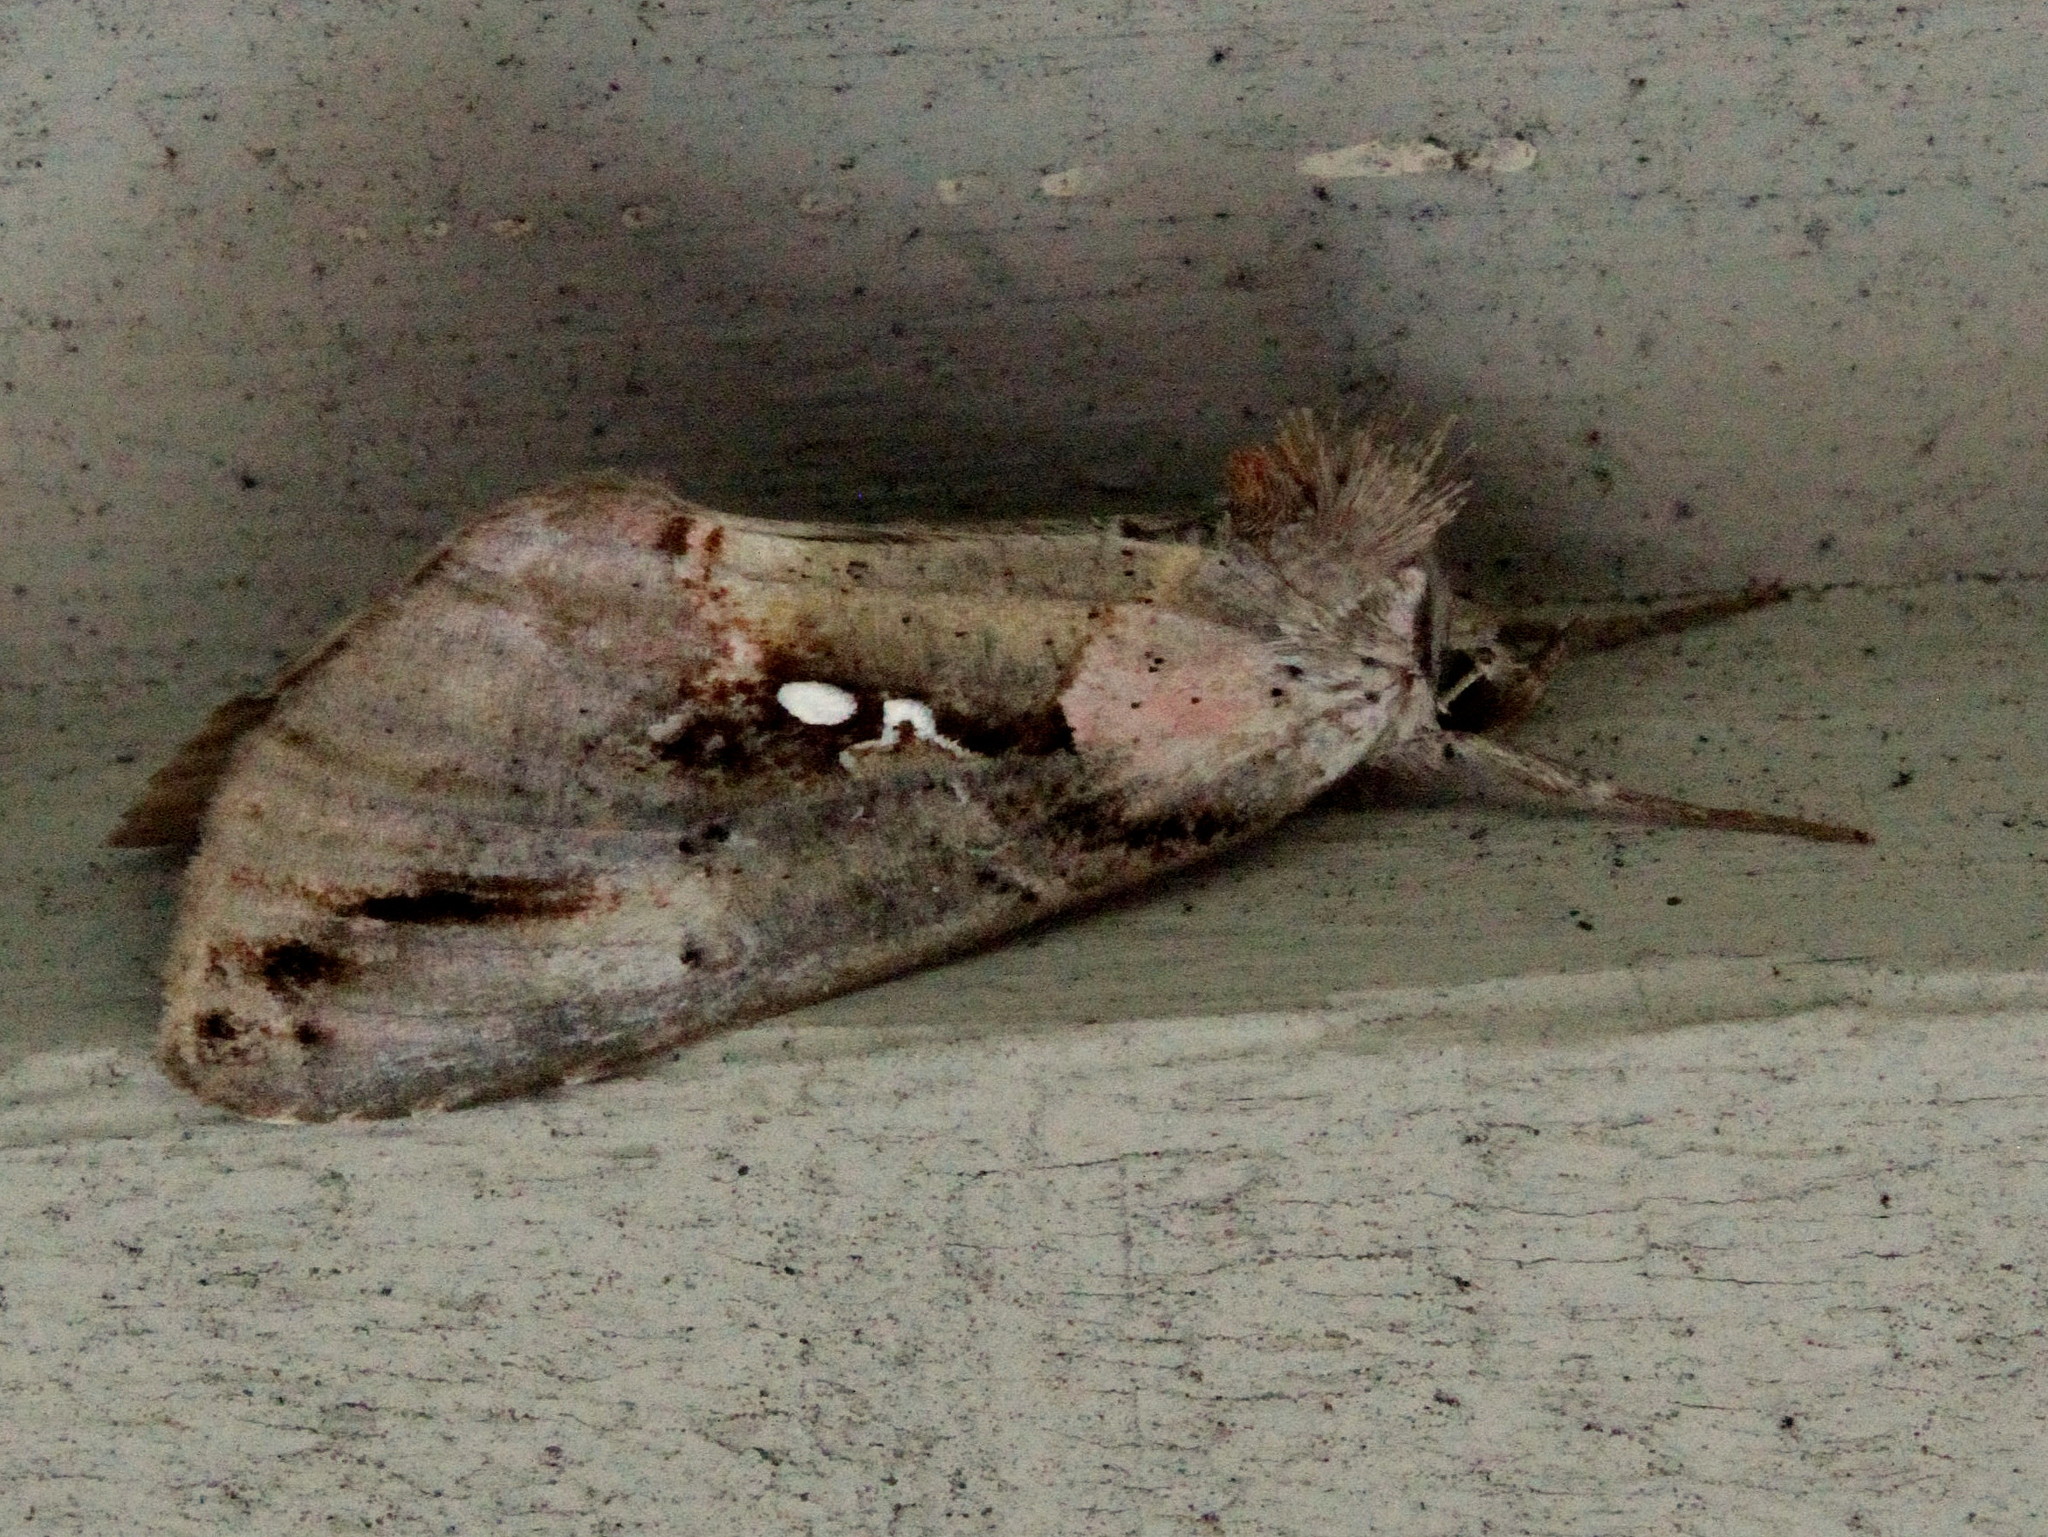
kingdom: Animalia
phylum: Arthropoda
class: Insecta
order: Lepidoptera
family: Noctuidae
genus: Eosphoropteryx
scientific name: Eosphoropteryx thyatyroides
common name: Pinkpatched looper moth
